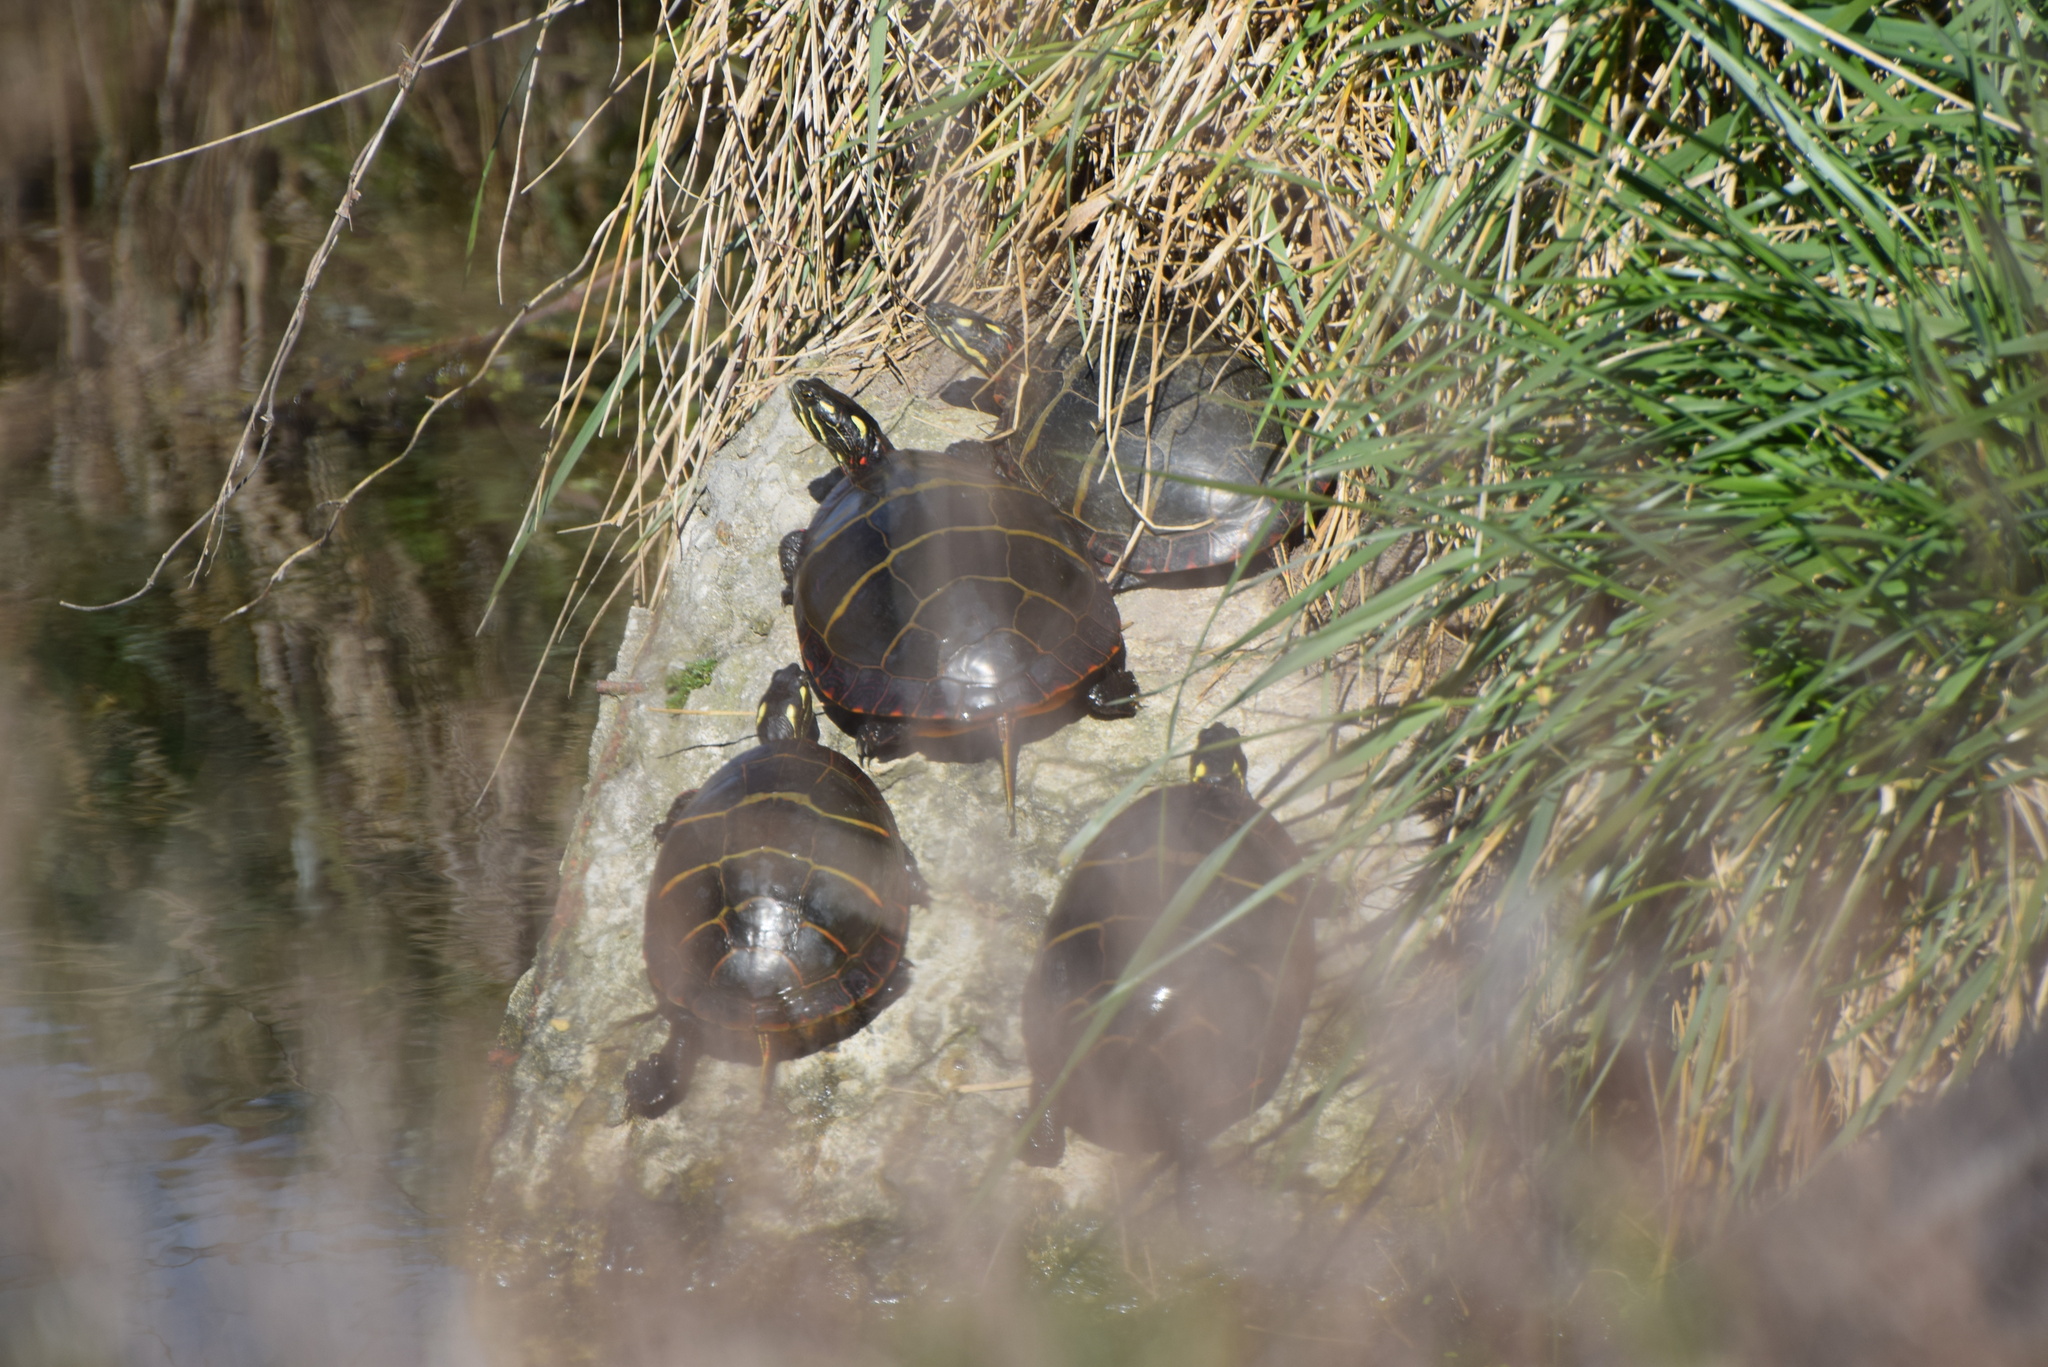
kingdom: Animalia
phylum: Chordata
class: Testudines
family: Emydidae
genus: Chrysemys
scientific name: Chrysemys picta
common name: Painted turtle
